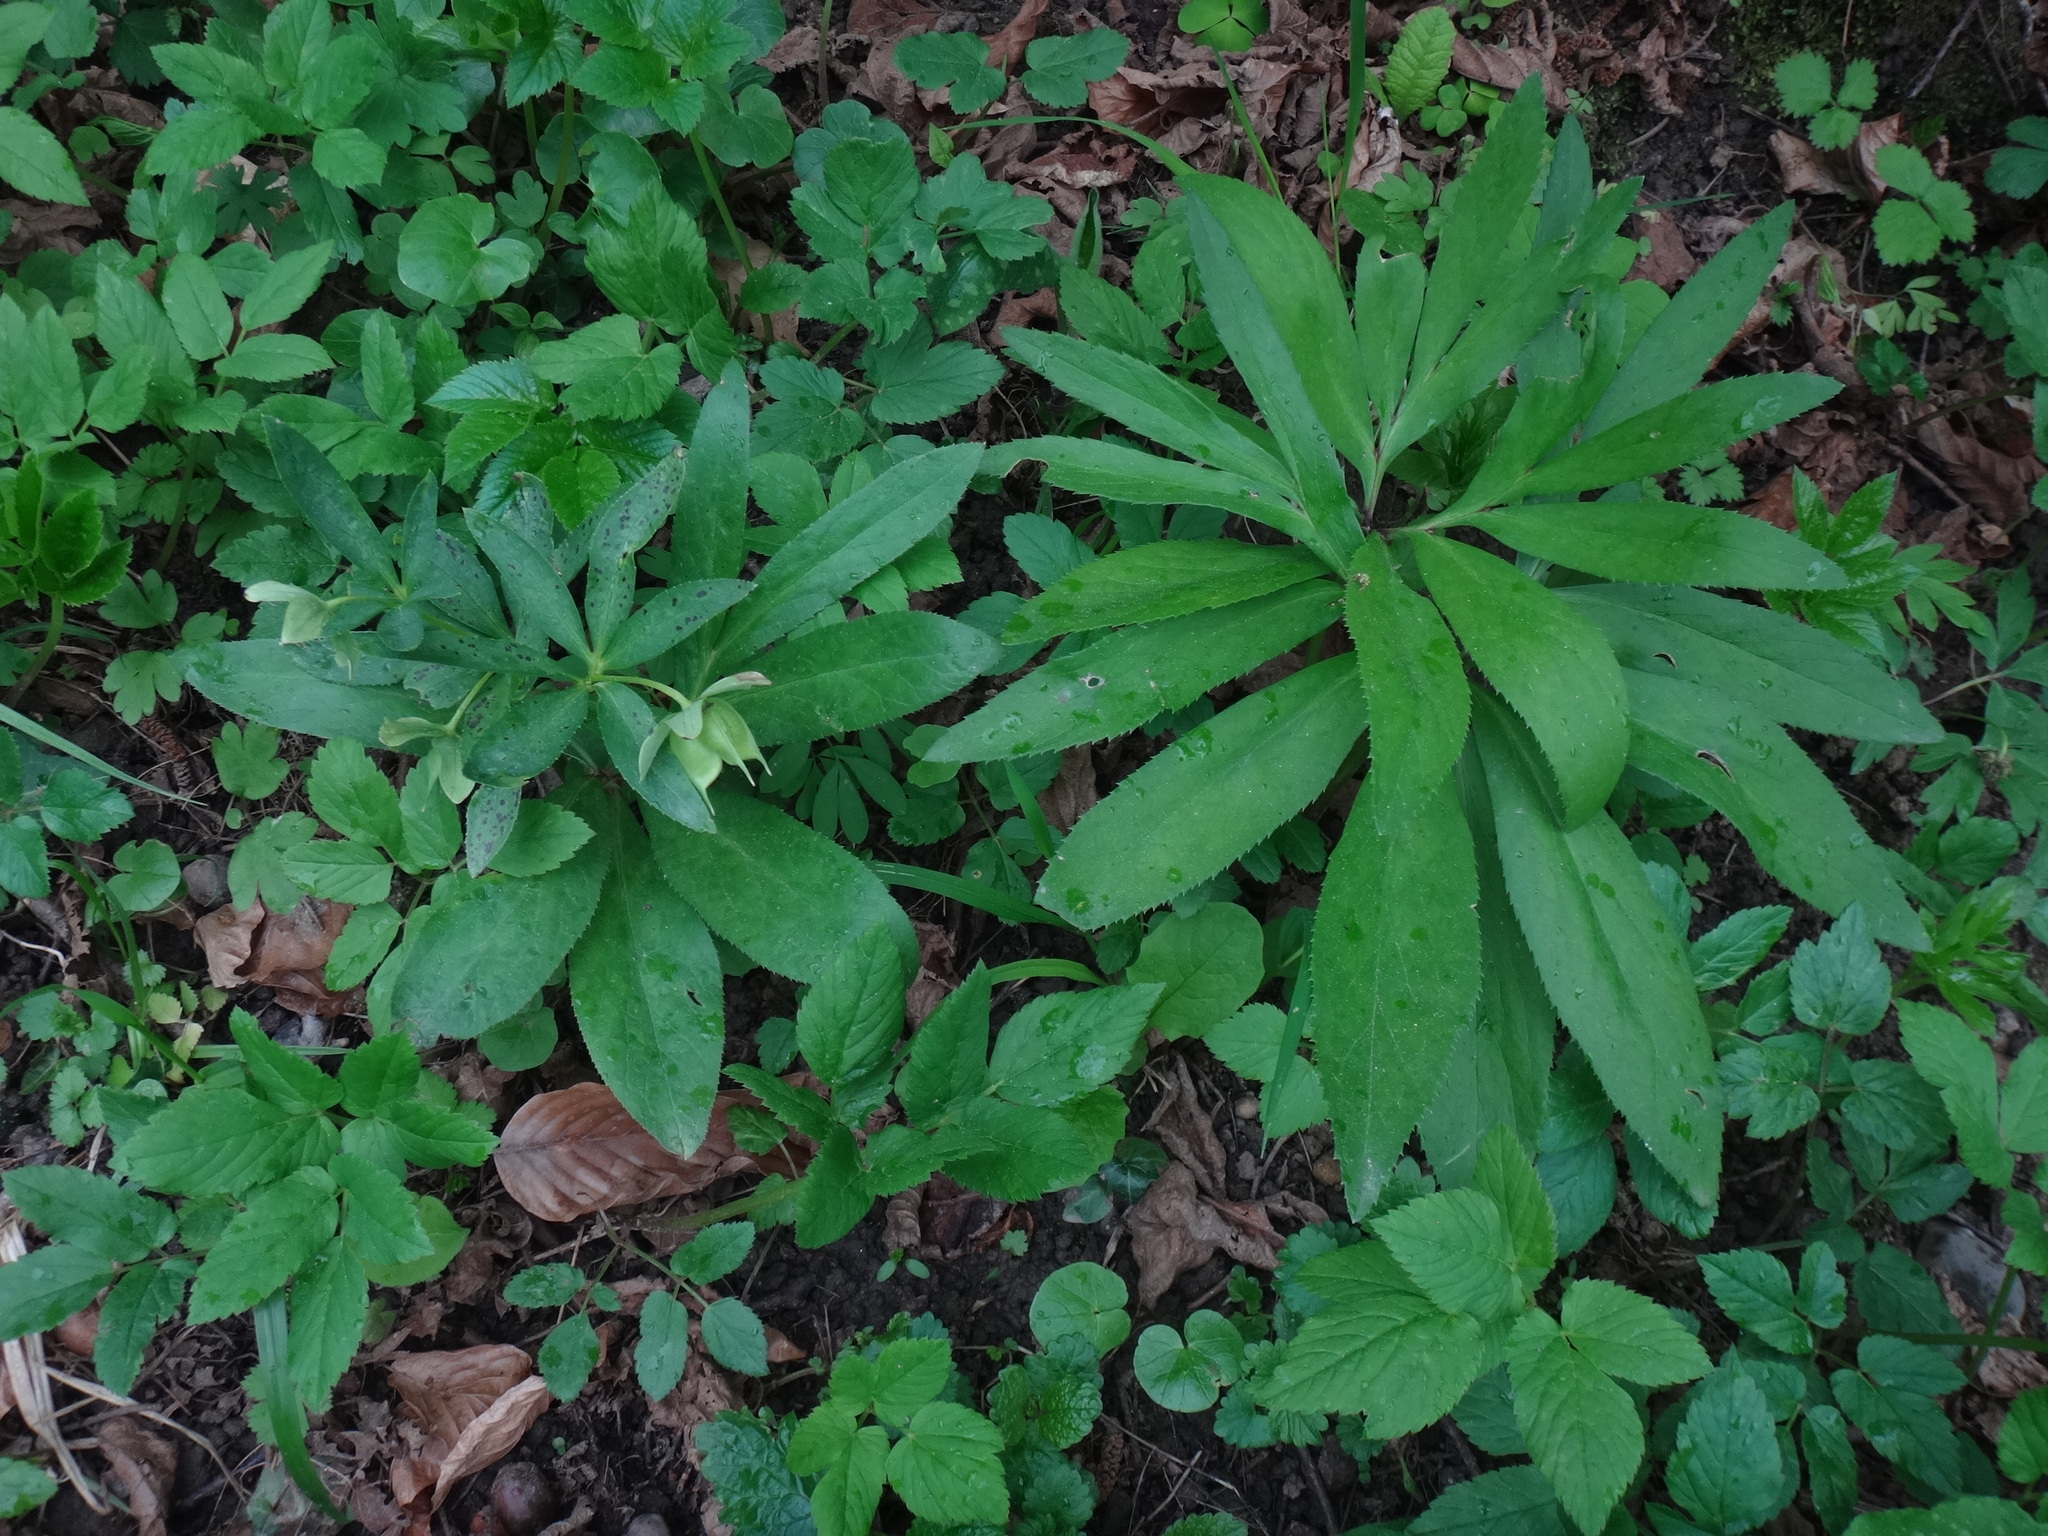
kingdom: Plantae
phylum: Tracheophyta
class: Magnoliopsida
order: Ranunculales
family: Ranunculaceae
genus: Helleborus
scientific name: Helleborus dumetorum
